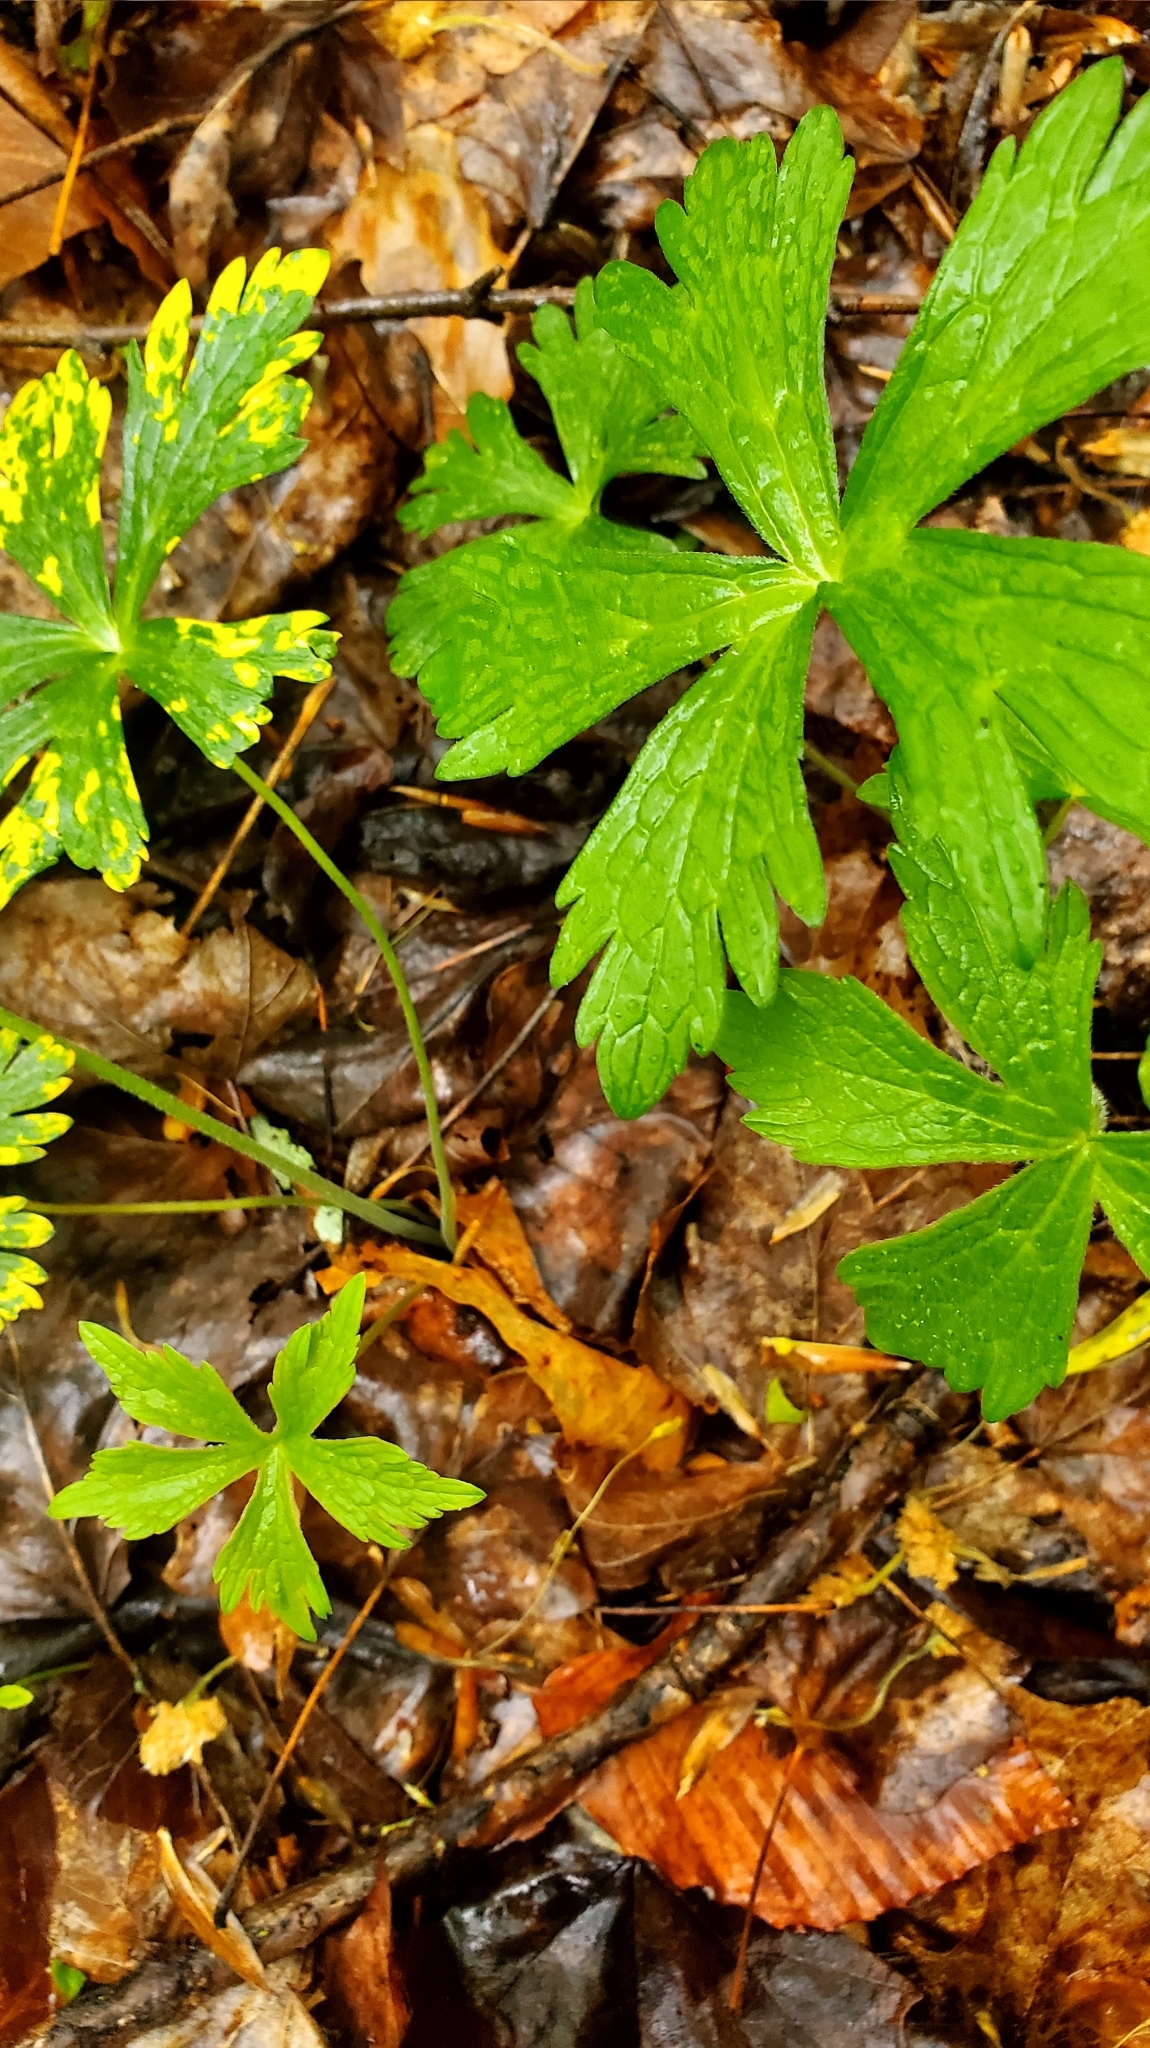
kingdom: Plantae
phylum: Tracheophyta
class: Magnoliopsida
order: Geraniales
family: Geraniaceae
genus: Geranium
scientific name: Geranium maculatum
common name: Spotted geranium
